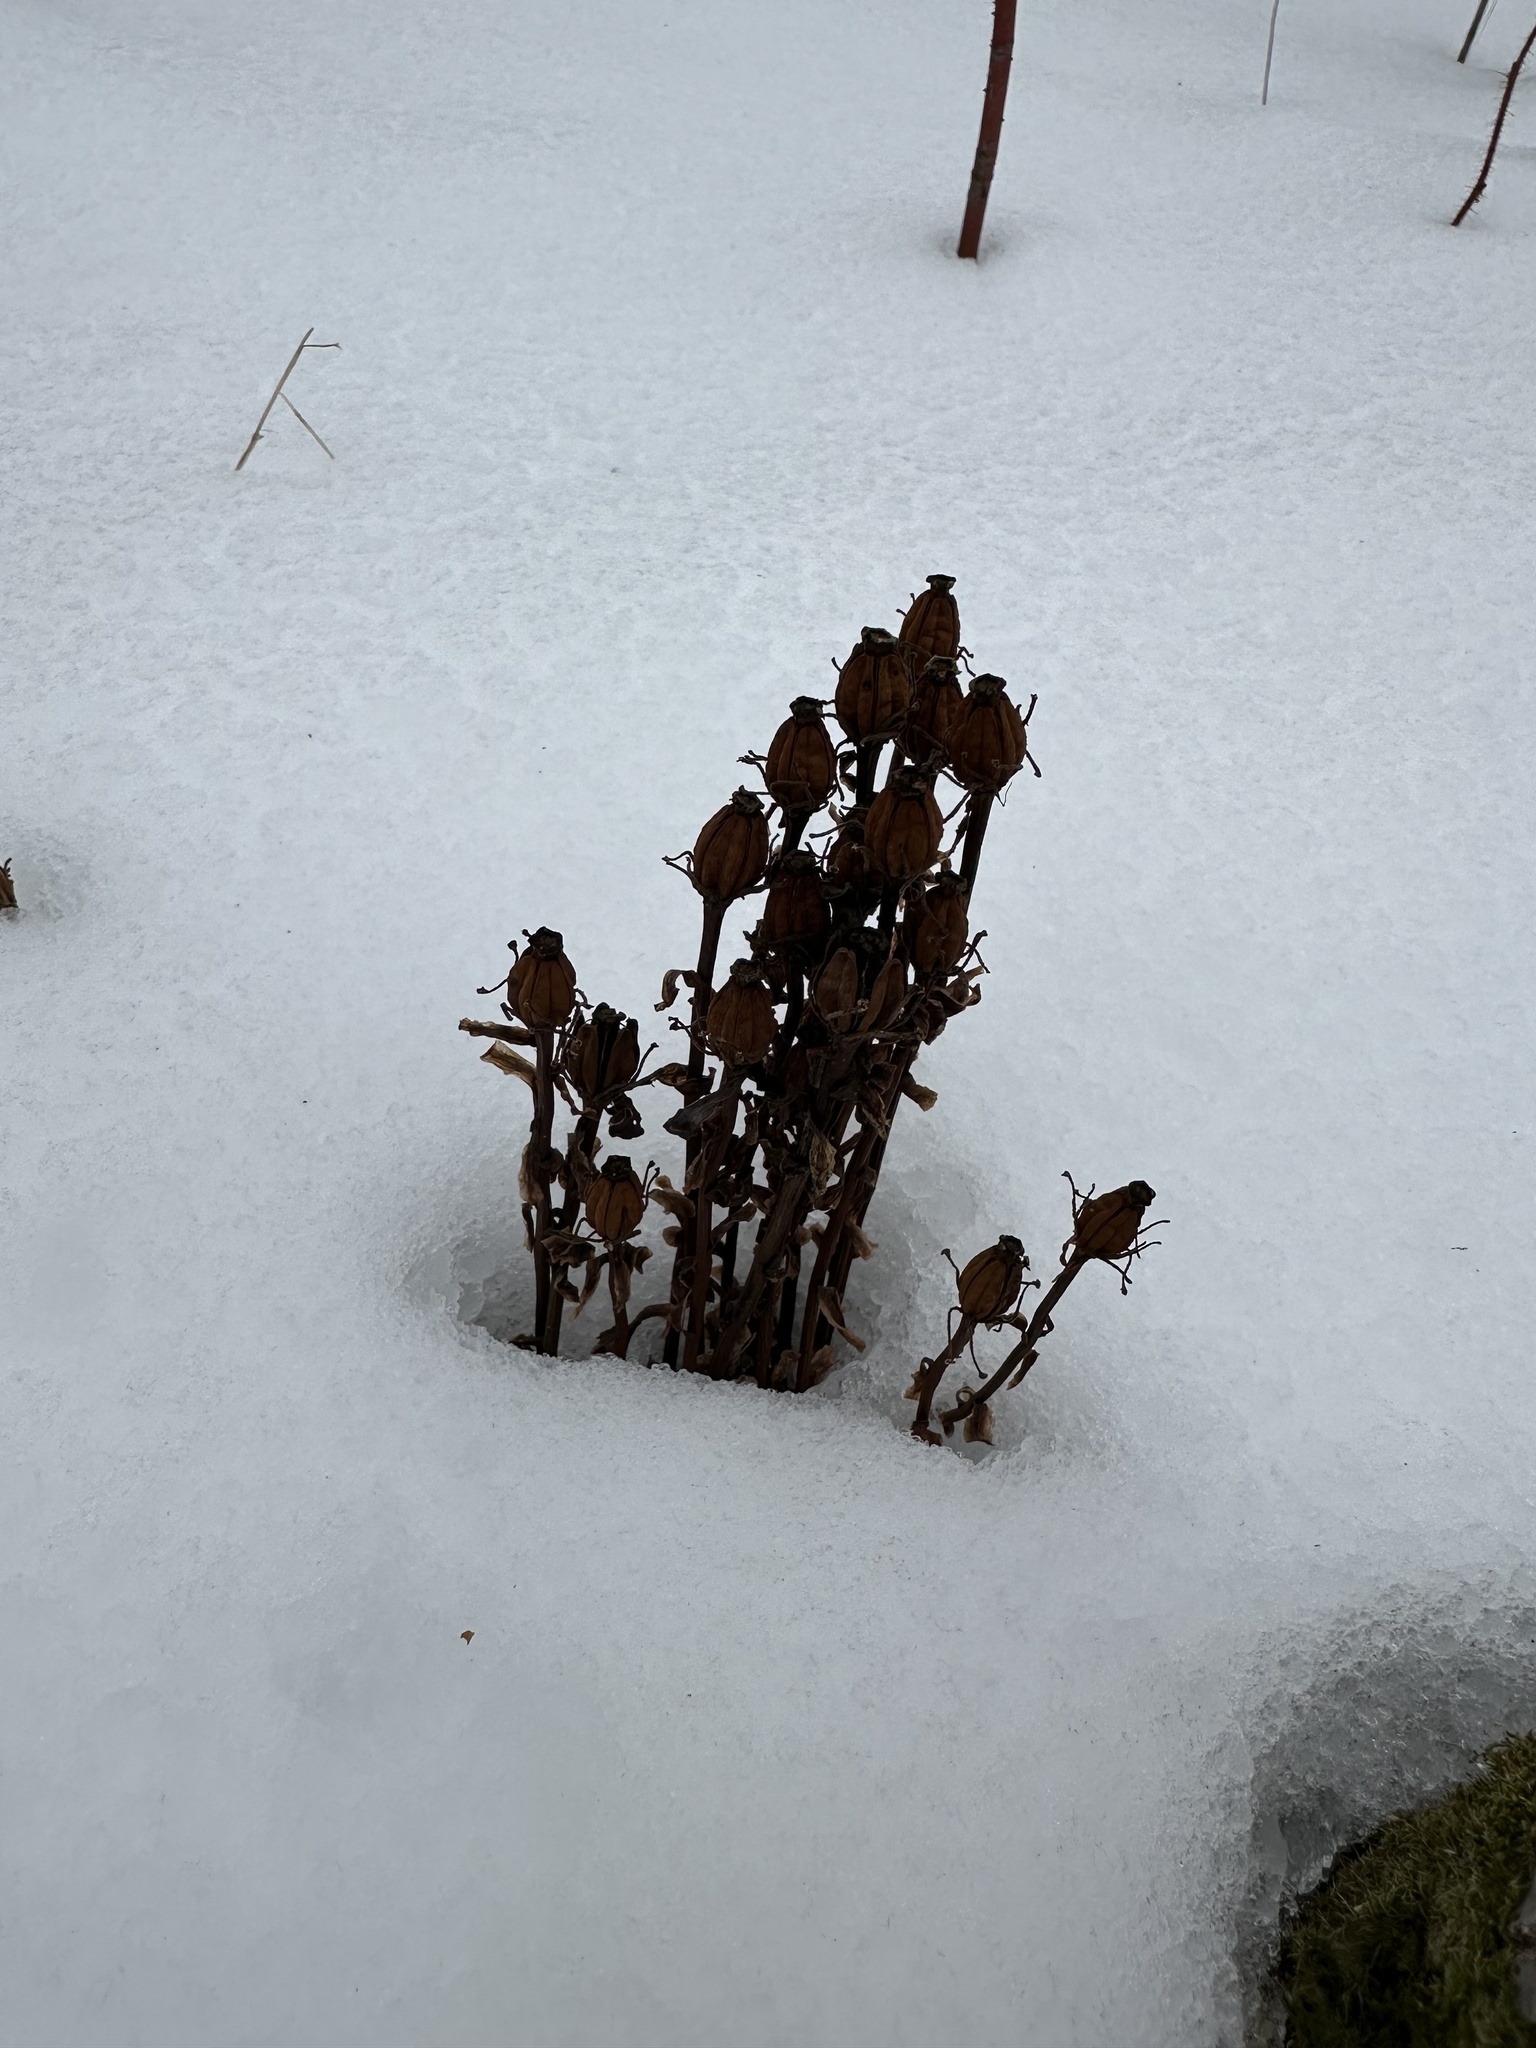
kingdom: Plantae
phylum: Tracheophyta
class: Magnoliopsida
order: Ericales
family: Ericaceae
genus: Monotropa
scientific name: Monotropa uniflora
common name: Convulsion root
